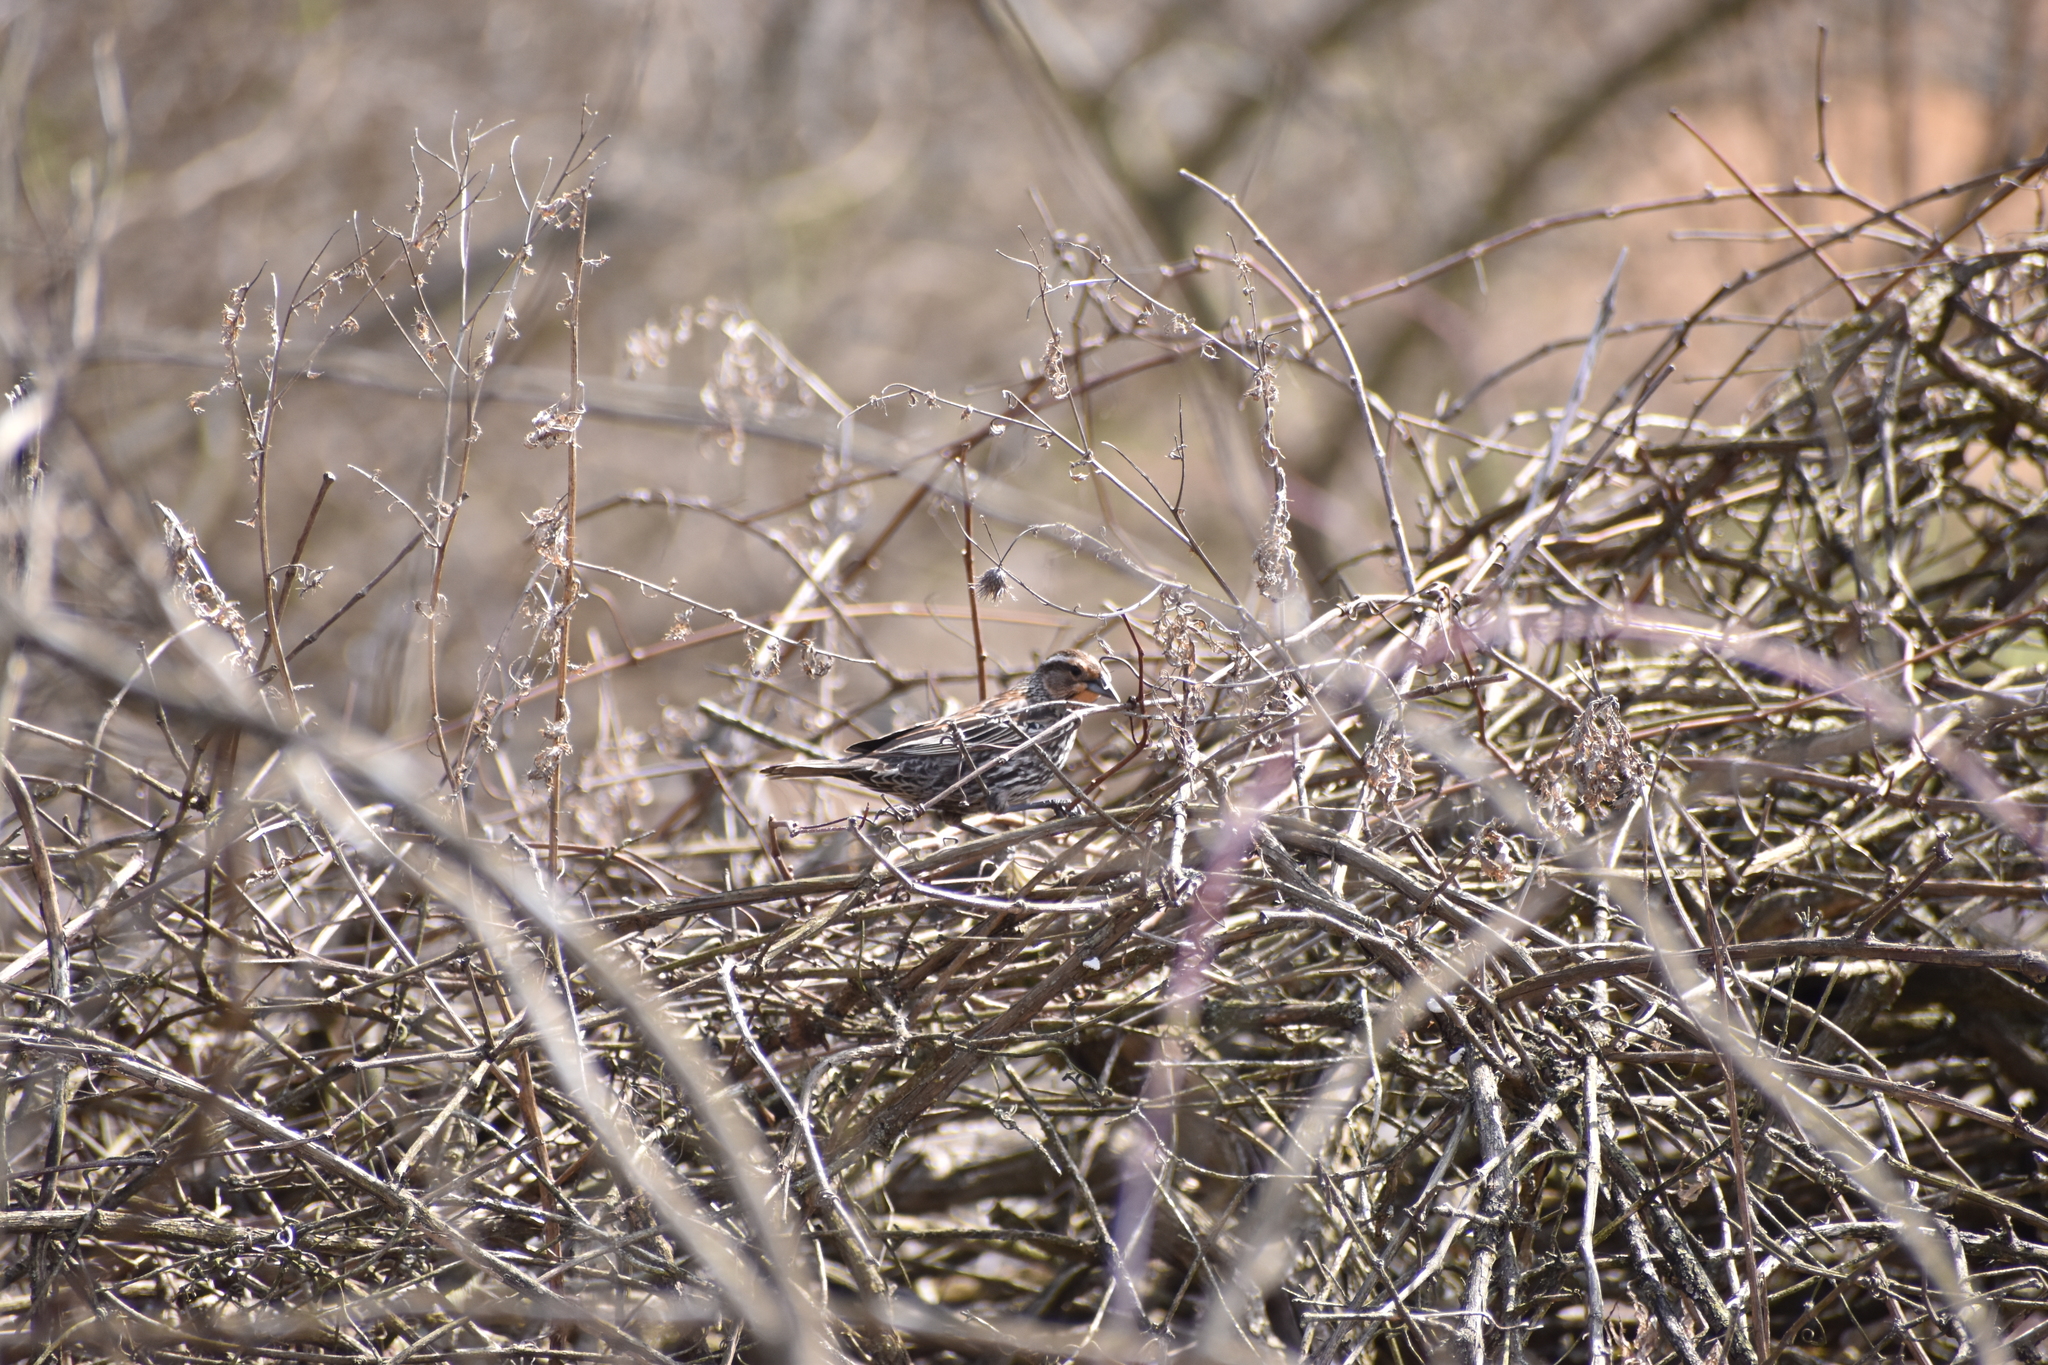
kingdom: Animalia
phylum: Chordata
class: Aves
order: Passeriformes
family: Icteridae
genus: Agelaius
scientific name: Agelaius phoeniceus
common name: Red-winged blackbird
